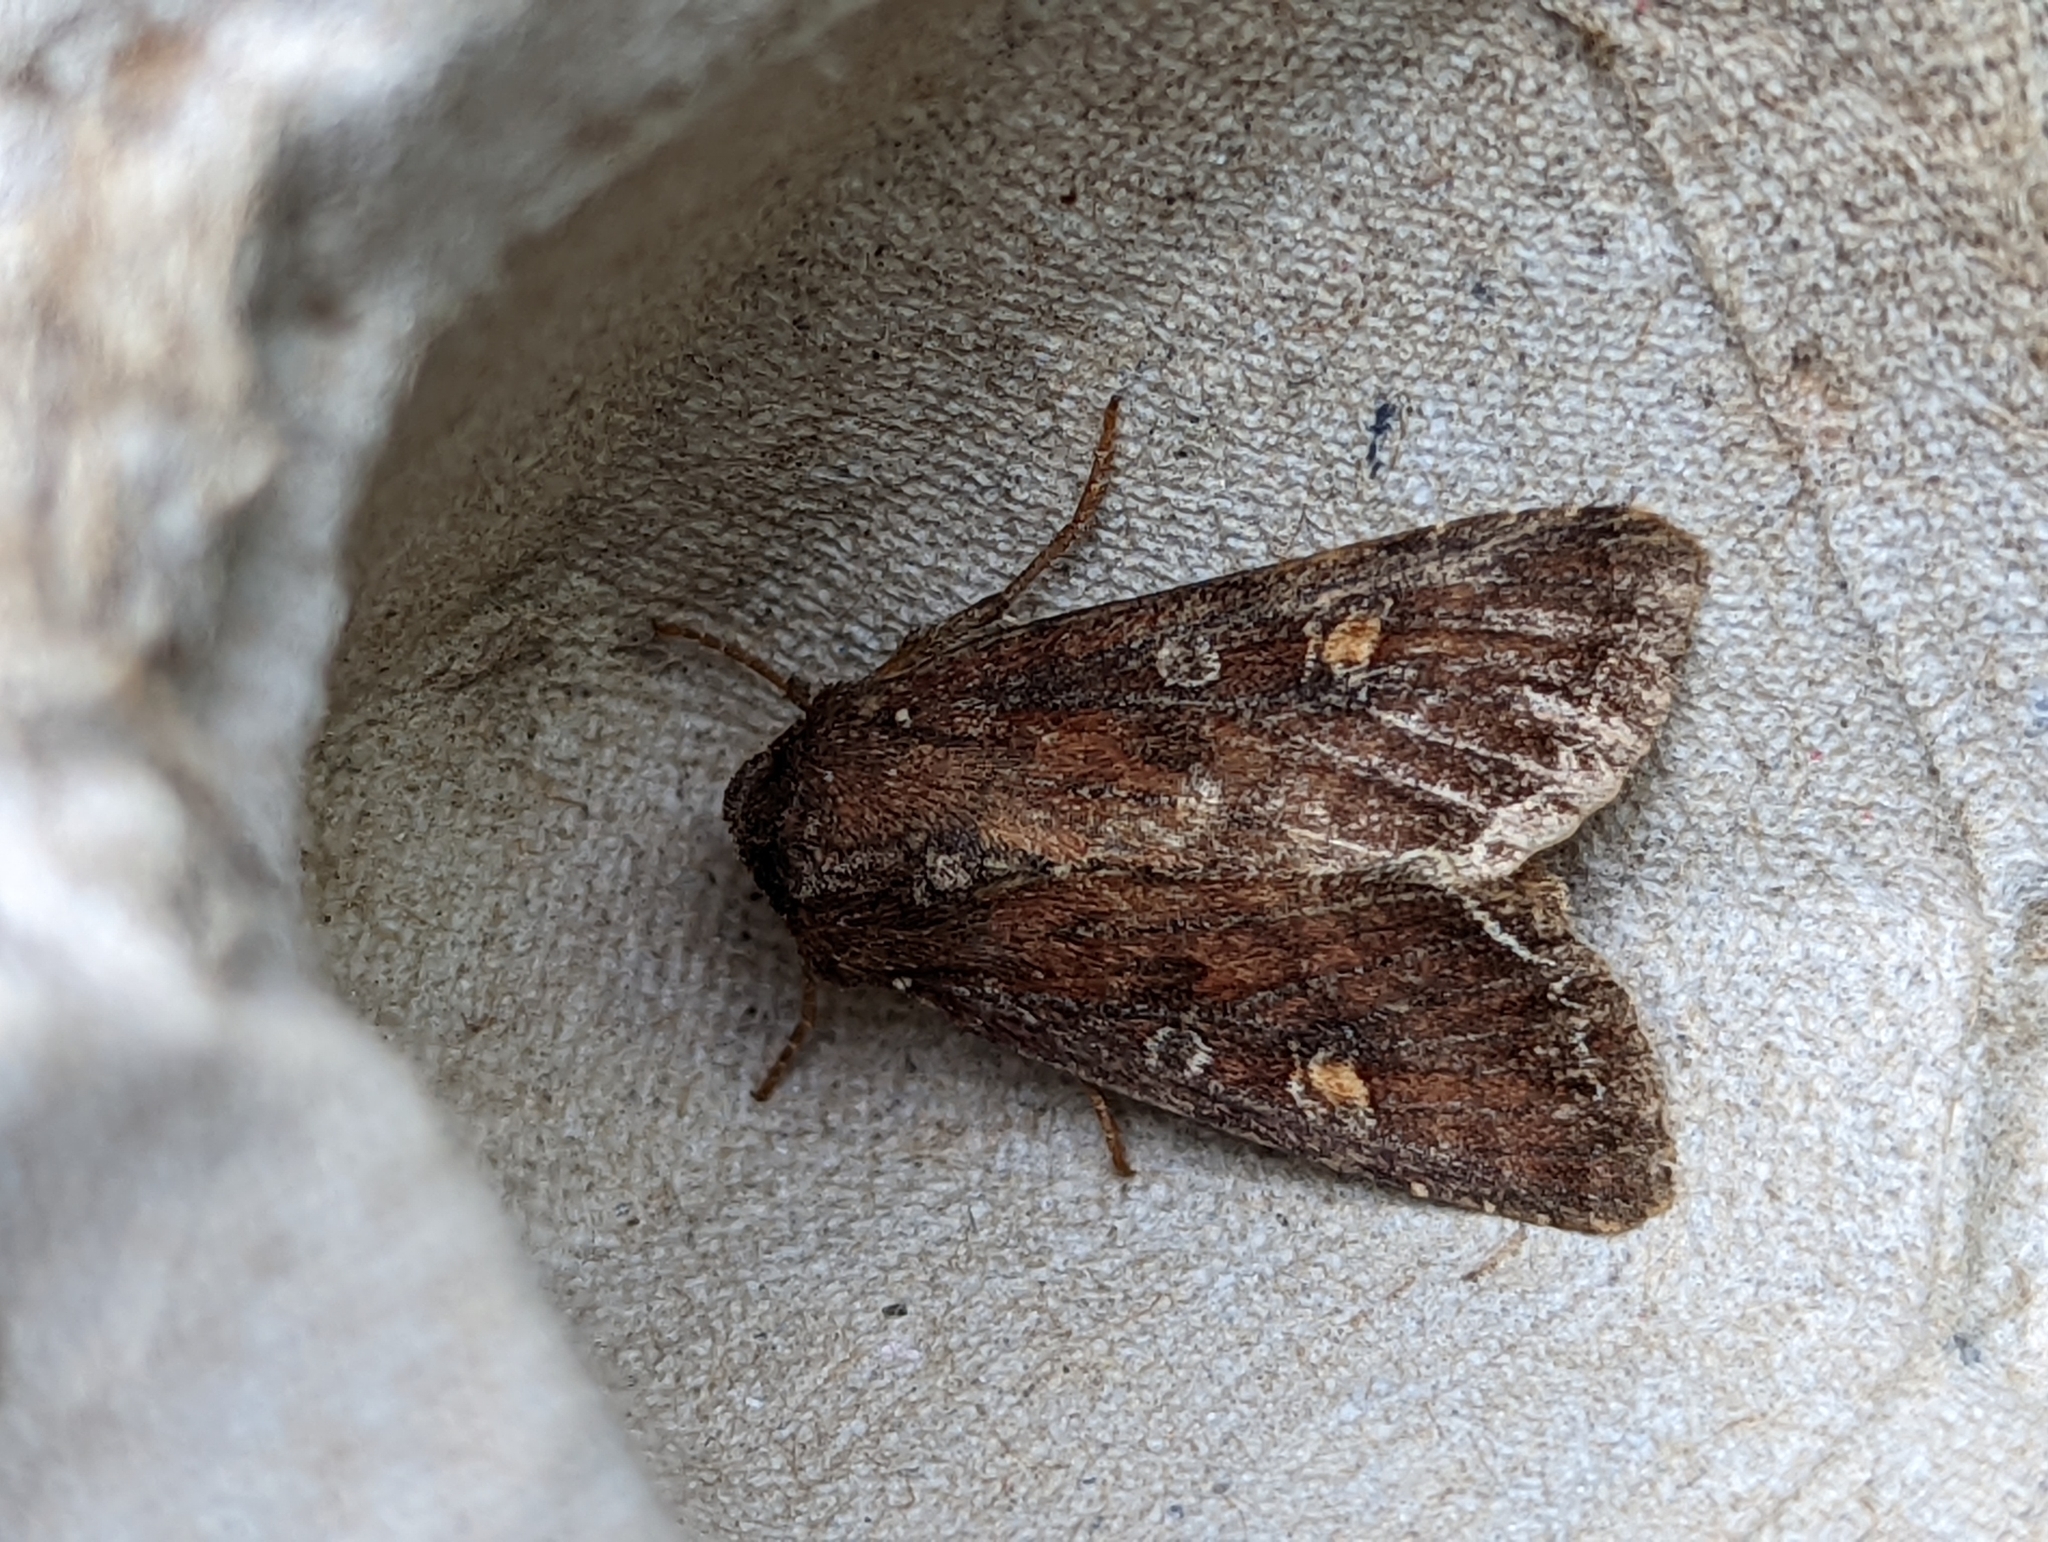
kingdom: Animalia
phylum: Arthropoda
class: Insecta
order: Lepidoptera
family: Noctuidae
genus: Lacanobia
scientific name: Lacanobia oleracea
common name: Bright-line brown-eye
